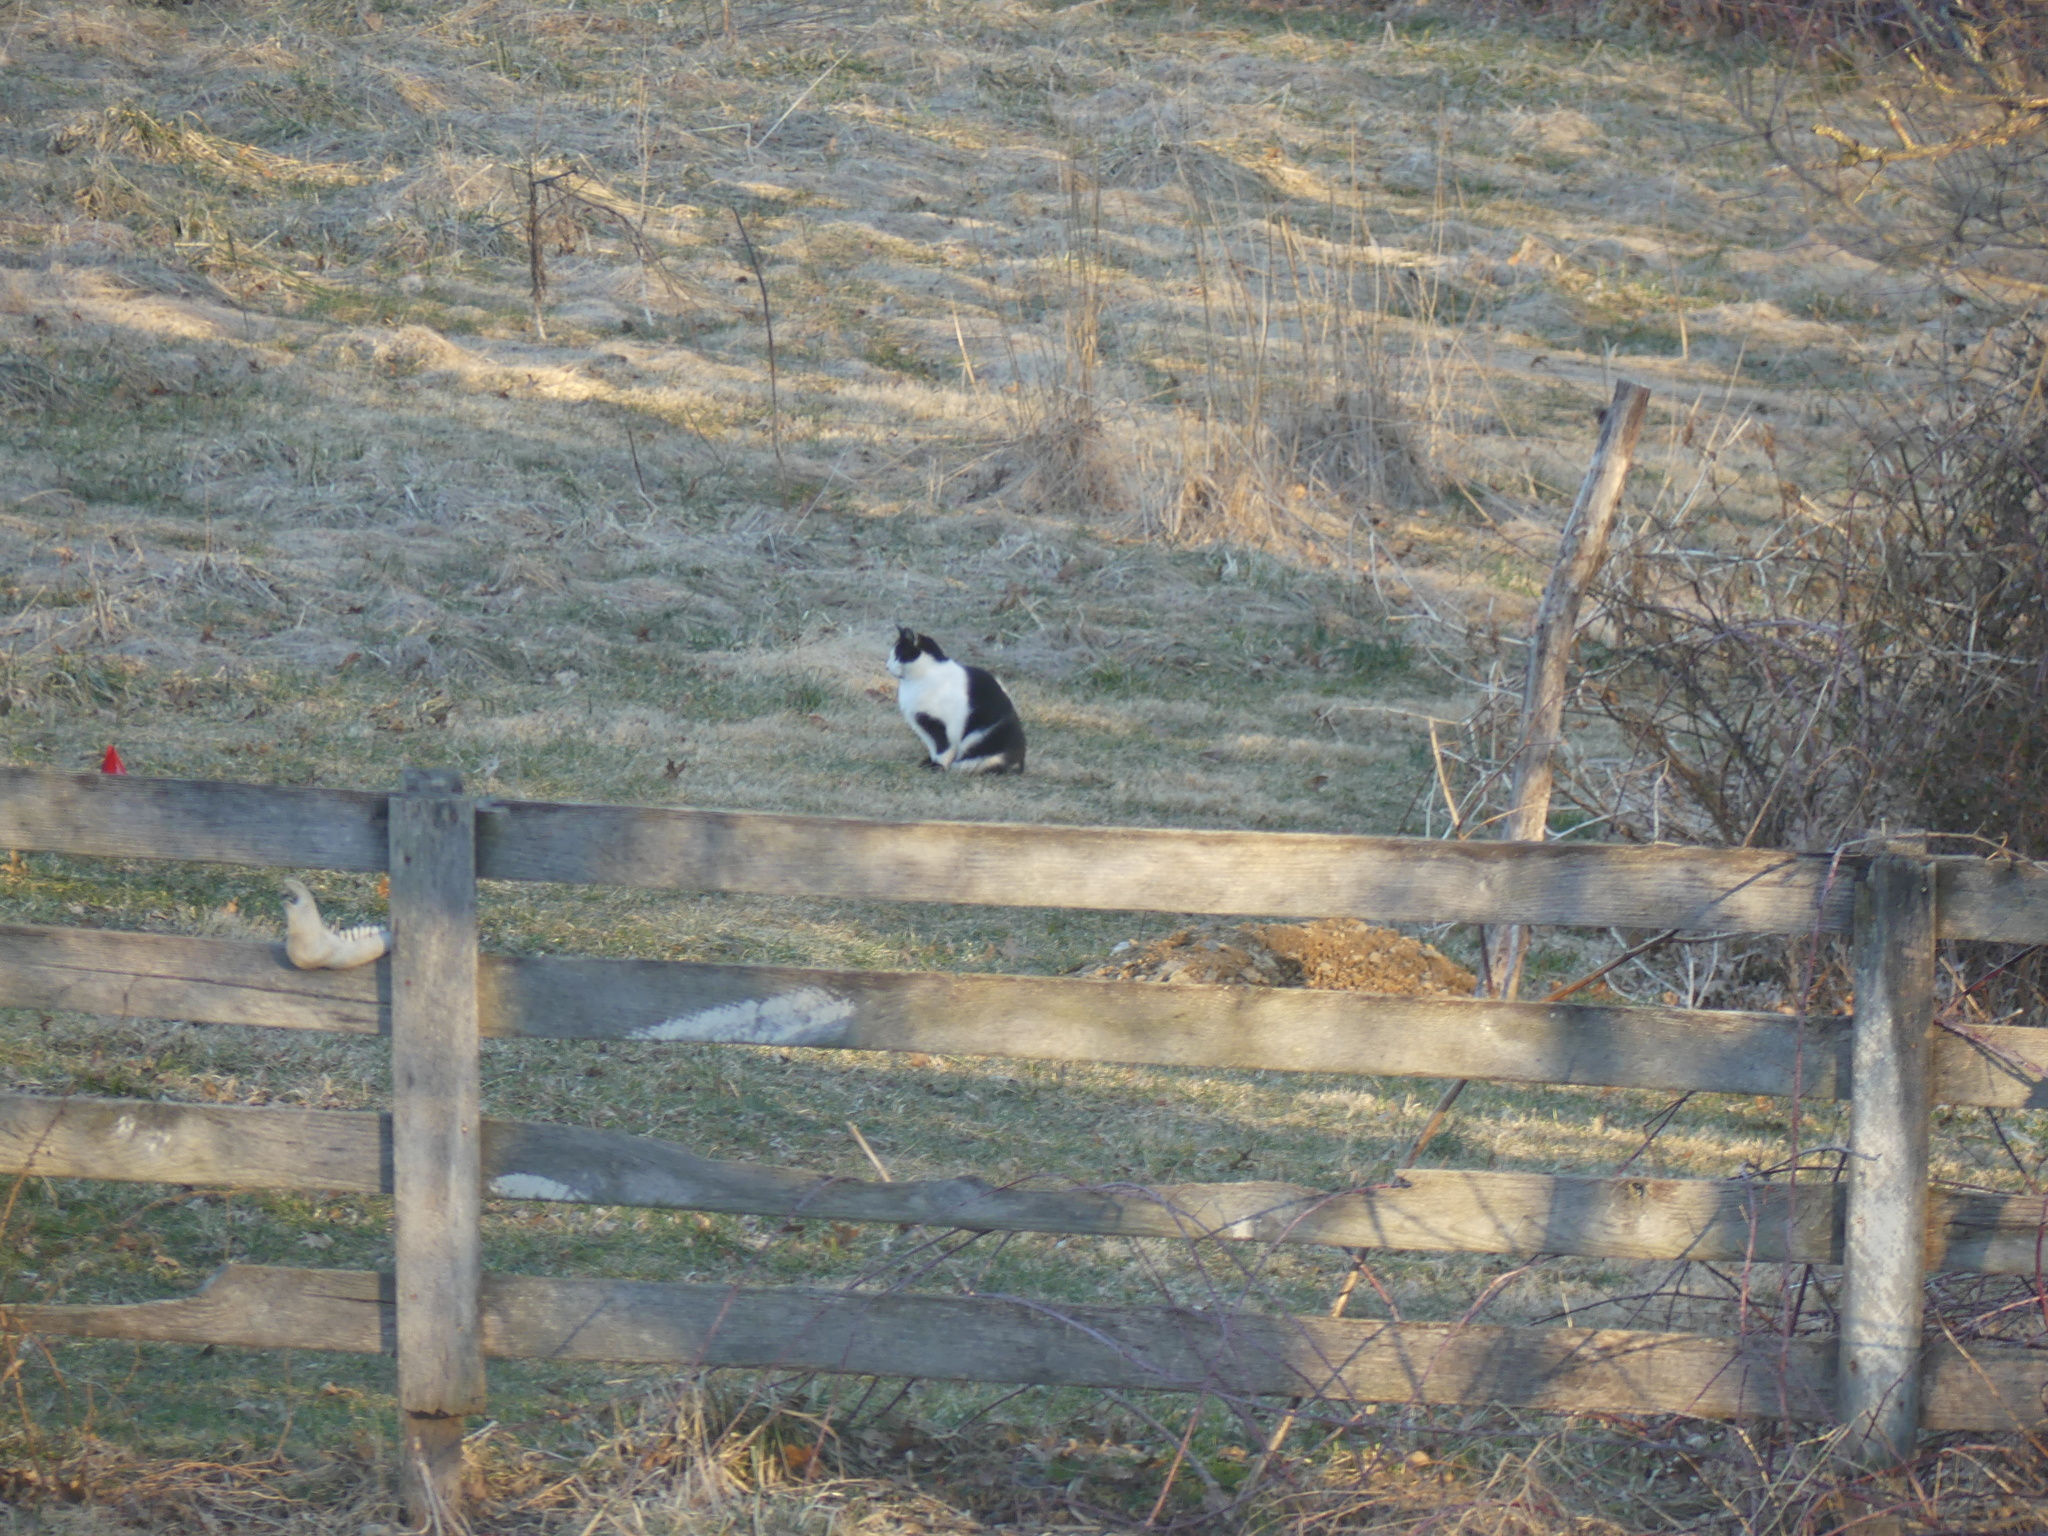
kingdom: Animalia
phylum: Chordata
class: Mammalia
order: Carnivora
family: Felidae
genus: Felis
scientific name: Felis catus
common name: Domestic cat
